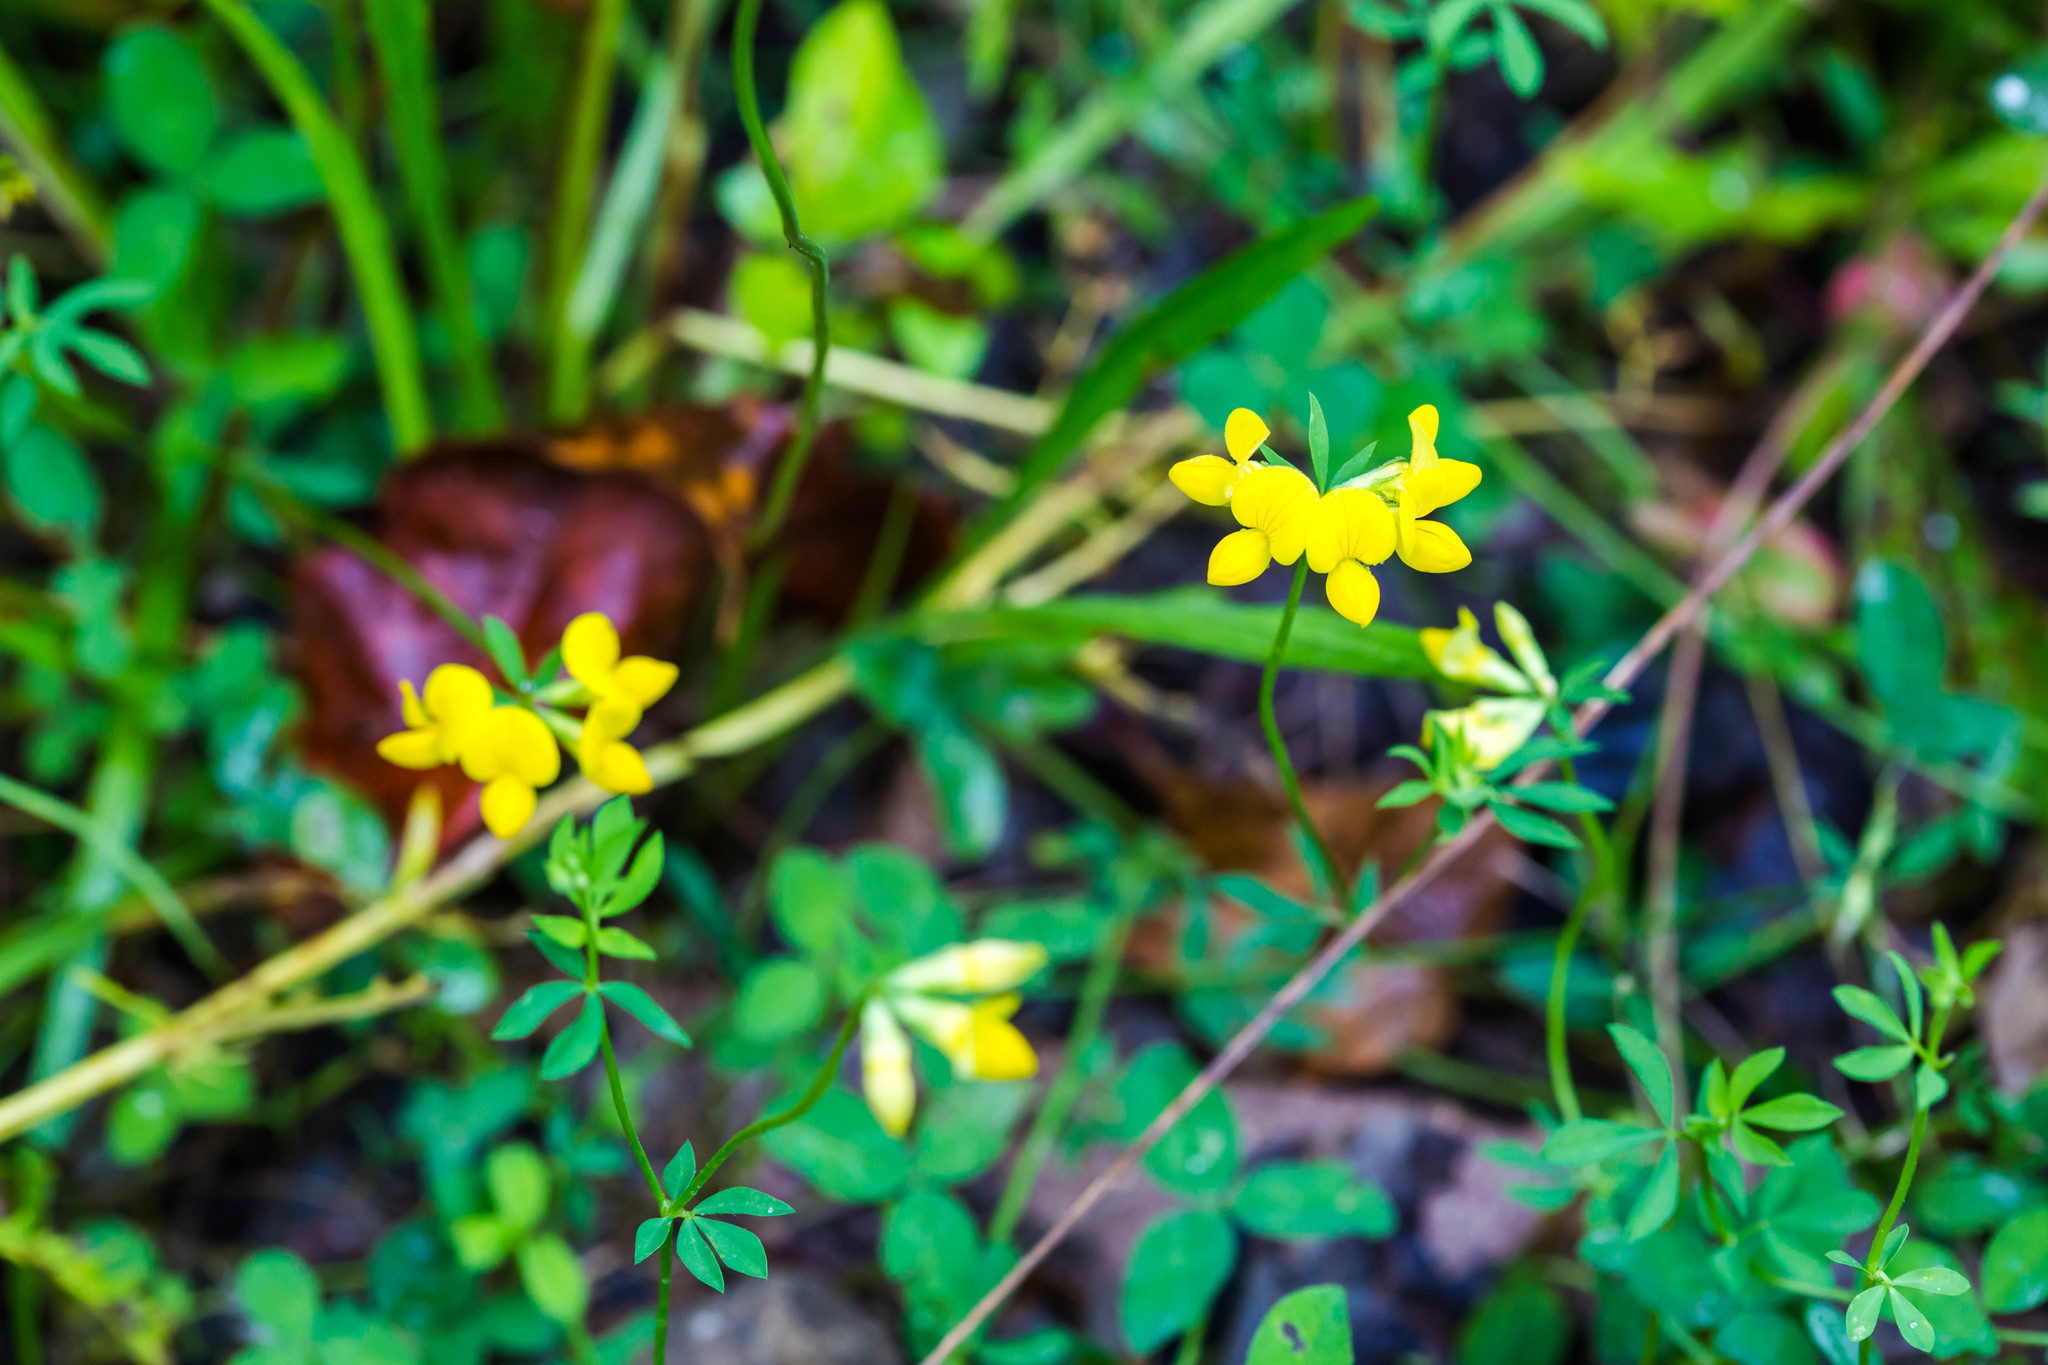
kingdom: Plantae
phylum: Tracheophyta
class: Magnoliopsida
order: Fabales
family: Fabaceae
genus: Lotus
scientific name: Lotus corniculatus
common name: Common bird's-foot-trefoil
